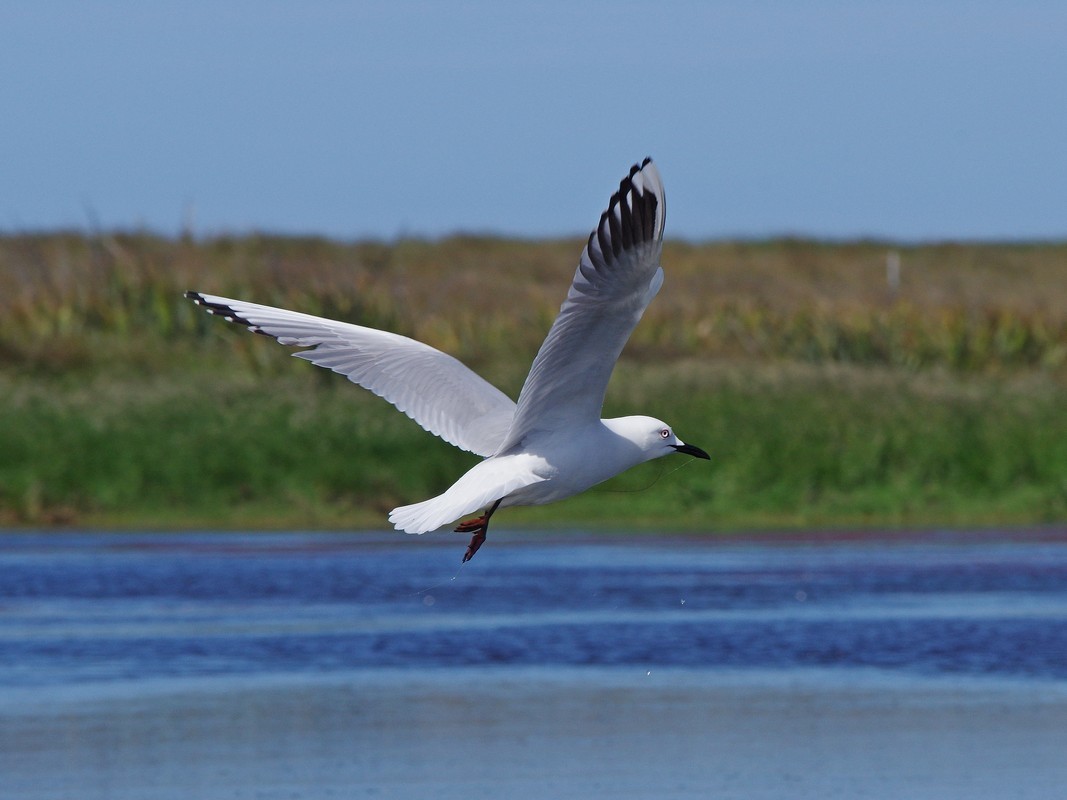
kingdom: Animalia
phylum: Chordata
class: Aves
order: Charadriiformes
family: Laridae
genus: Chroicocephalus
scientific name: Chroicocephalus bulleri
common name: Black-billed gull
